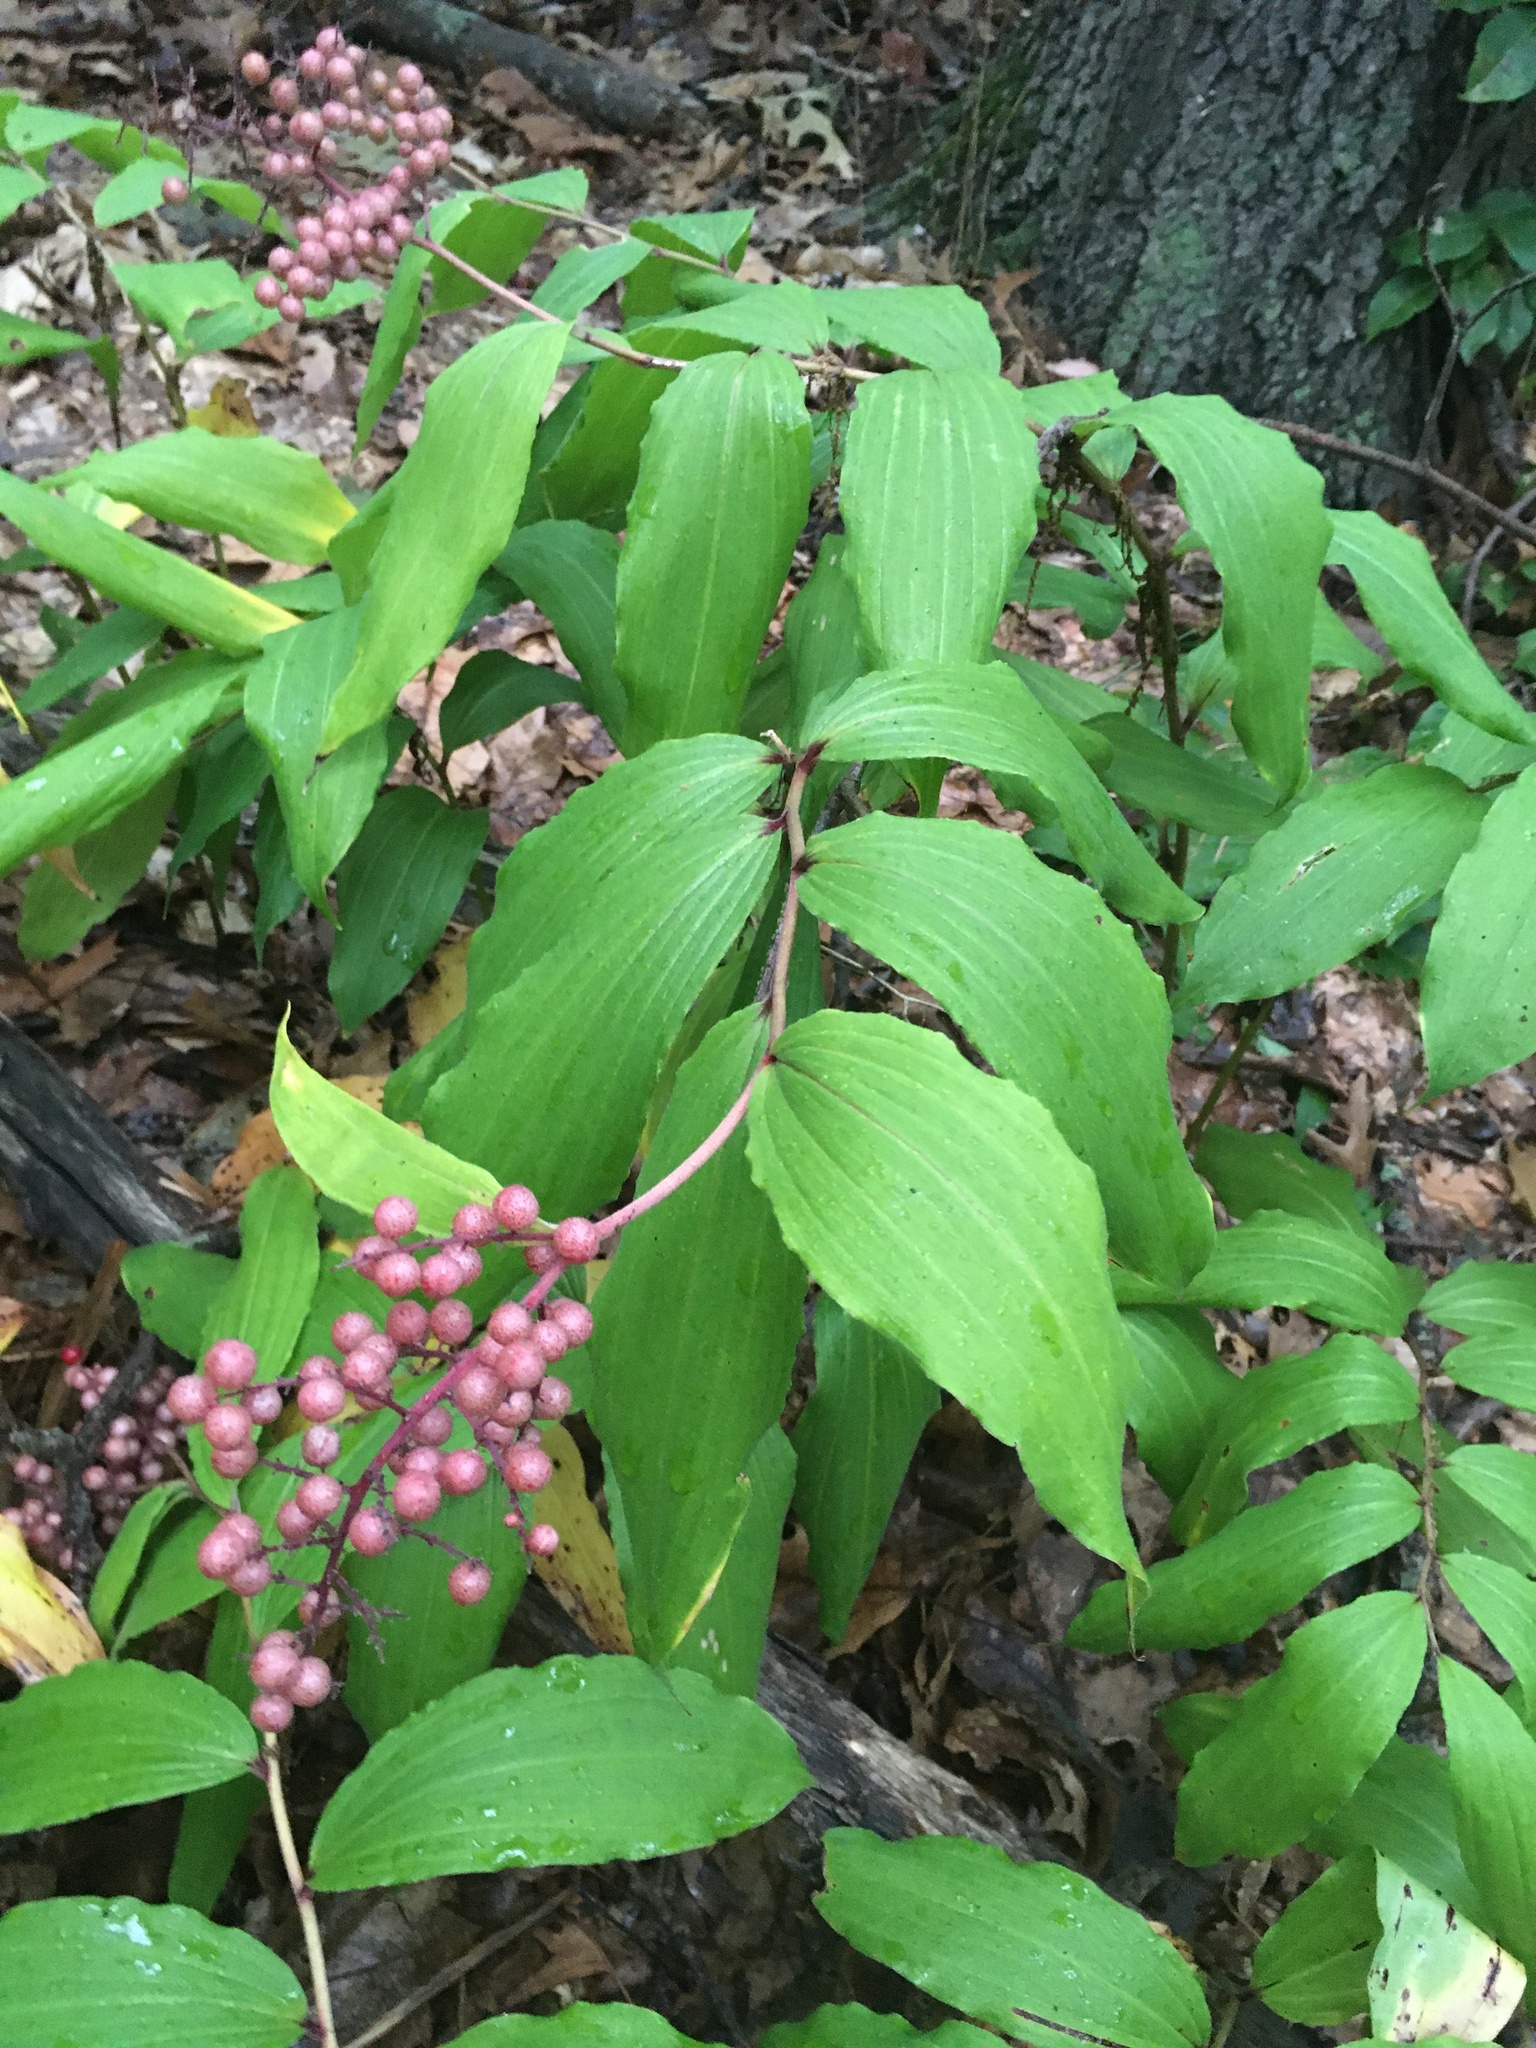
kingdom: Plantae
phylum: Tracheophyta
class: Liliopsida
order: Asparagales
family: Asparagaceae
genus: Maianthemum
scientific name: Maianthemum racemosum
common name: False spikenard
